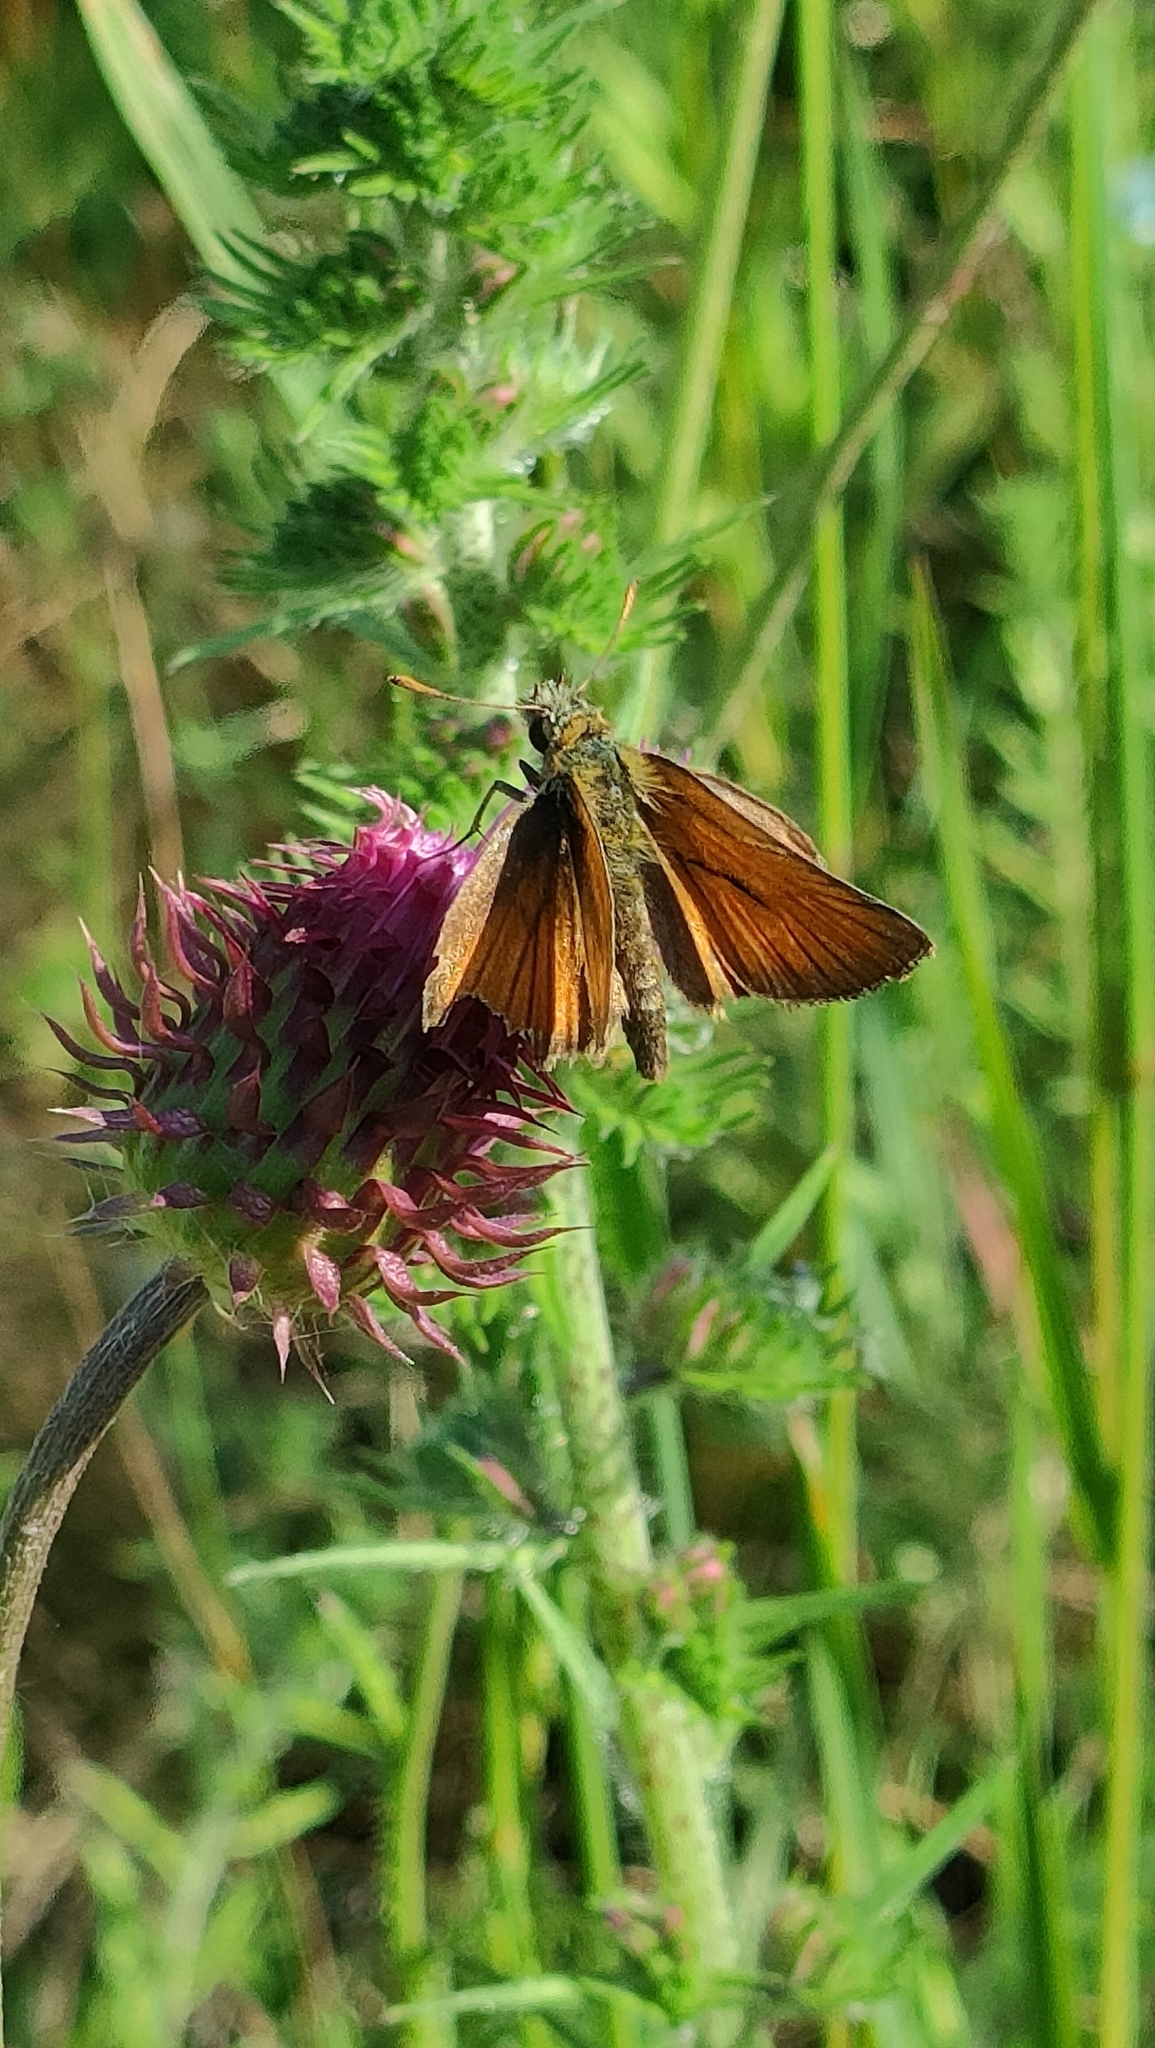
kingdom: Animalia
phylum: Arthropoda
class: Insecta
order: Lepidoptera
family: Hesperiidae
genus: Thymelicus
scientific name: Thymelicus sylvestris
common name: Small skipper
